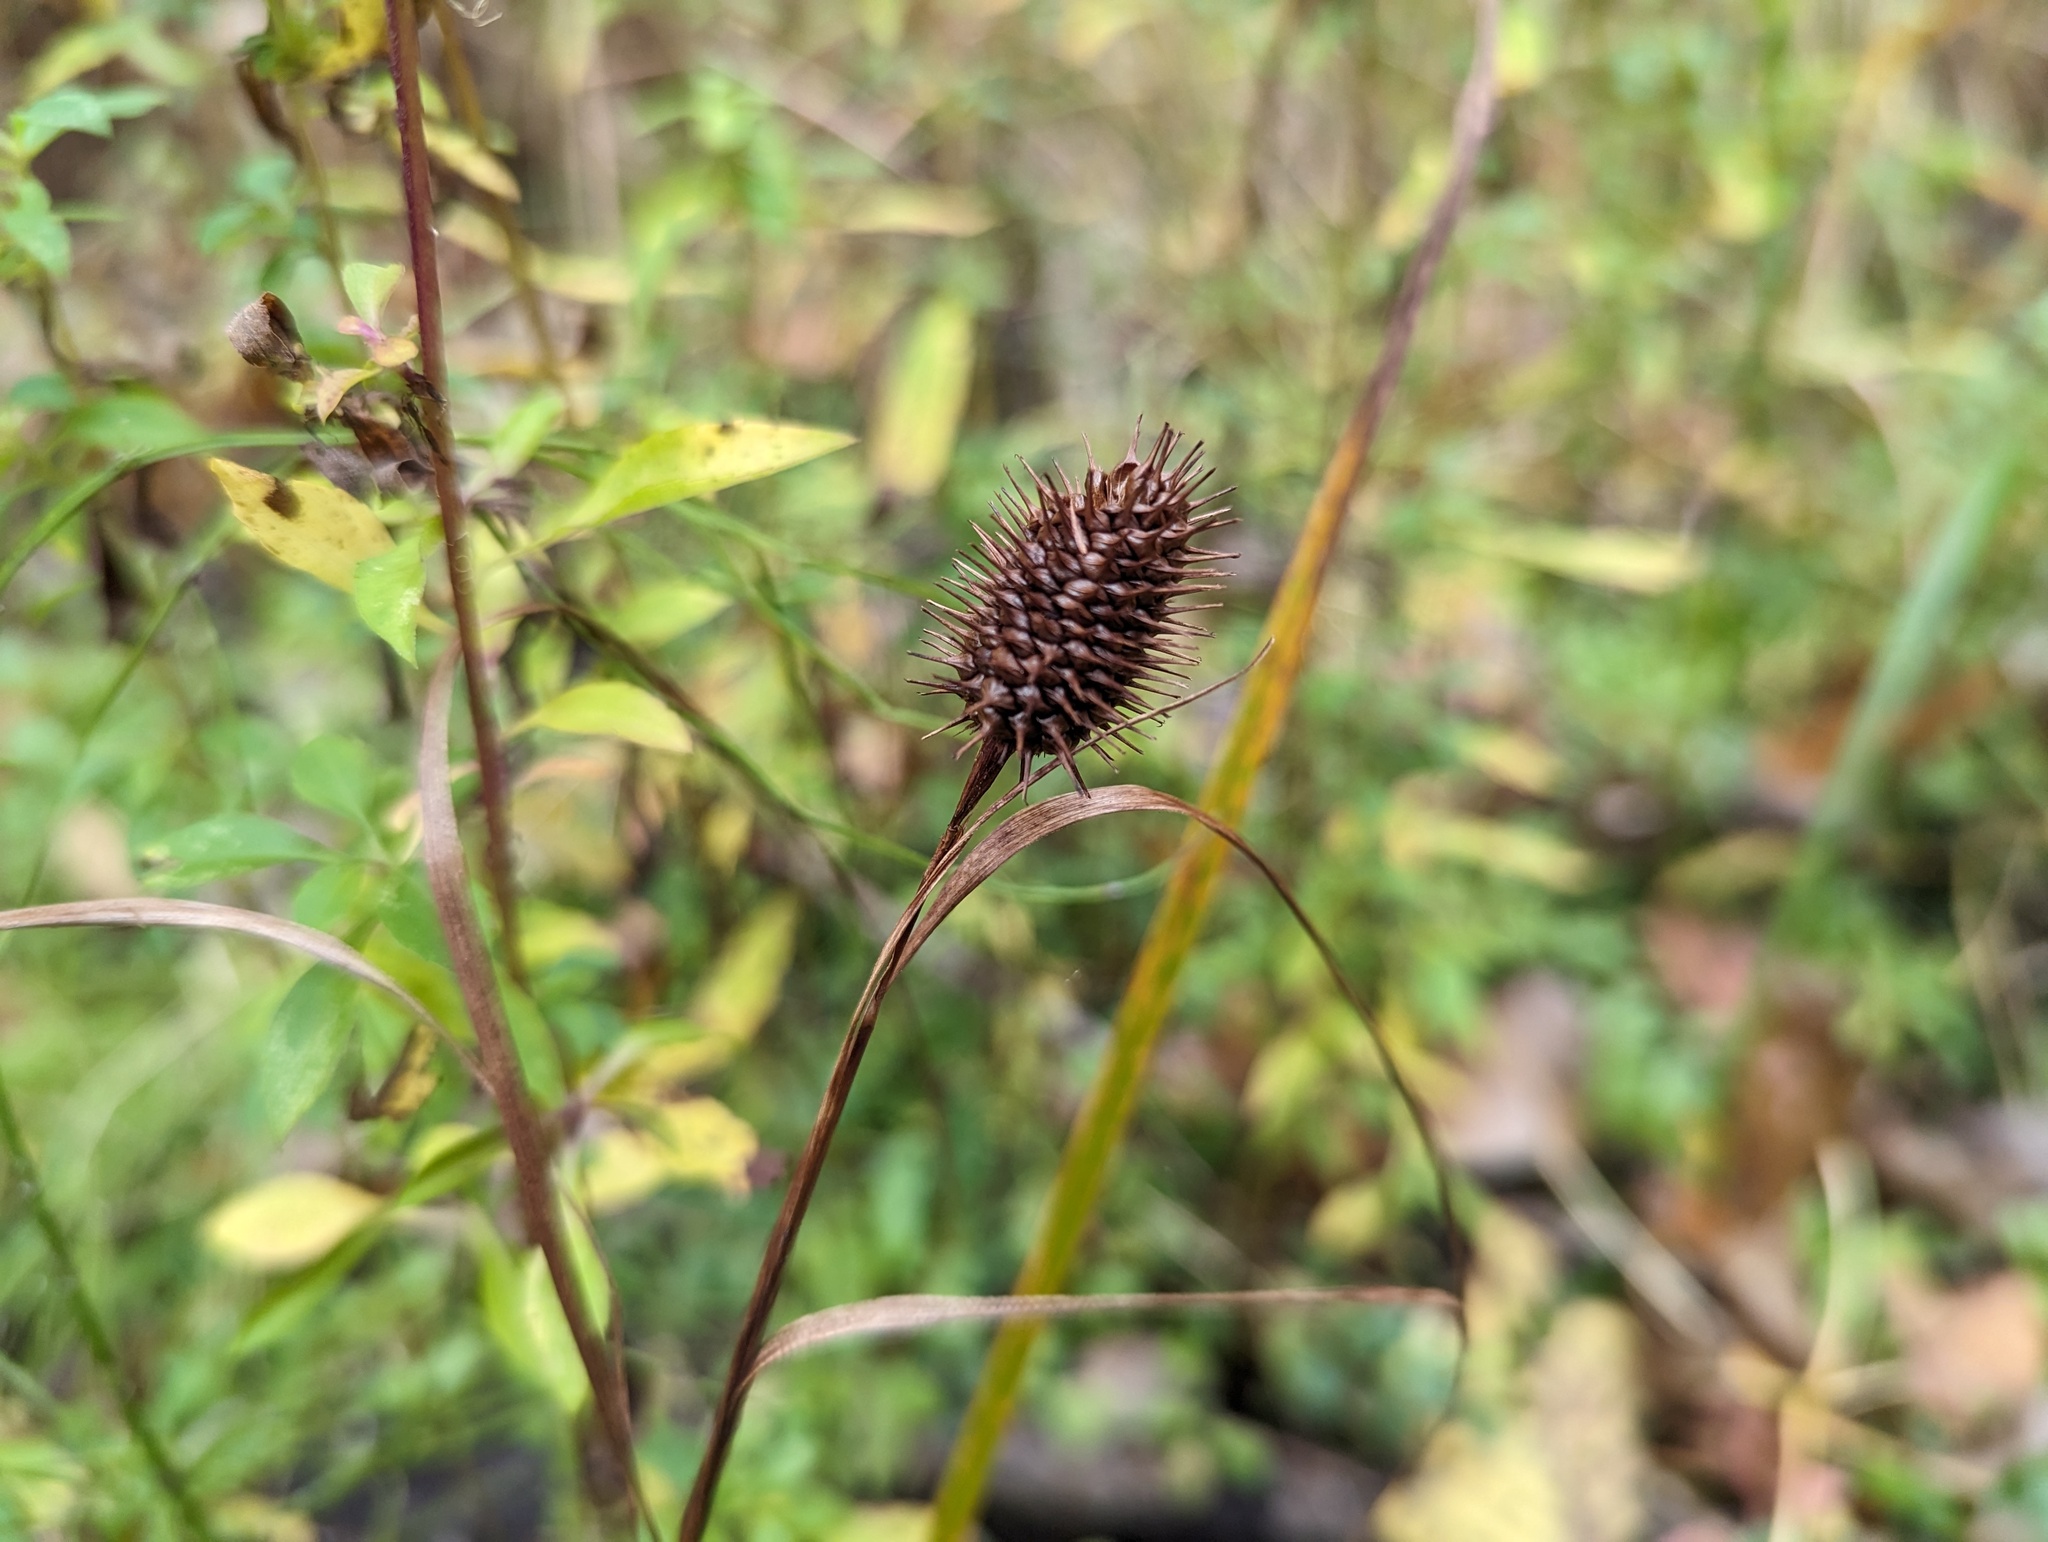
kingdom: Plantae
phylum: Tracheophyta
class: Liliopsida
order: Poales
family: Cyperaceae
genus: Carex
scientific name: Carex squarrosa
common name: Narrow-leaved cattail sedge
